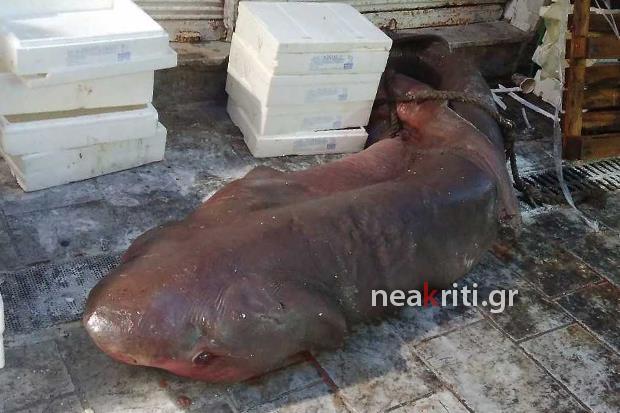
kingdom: Animalia
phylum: Chordata
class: Elasmobranchii
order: Hexanchiformes
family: Hexanchidae
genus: Hexanchus
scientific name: Hexanchus griseus
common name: Bluntnose sixgill shark
